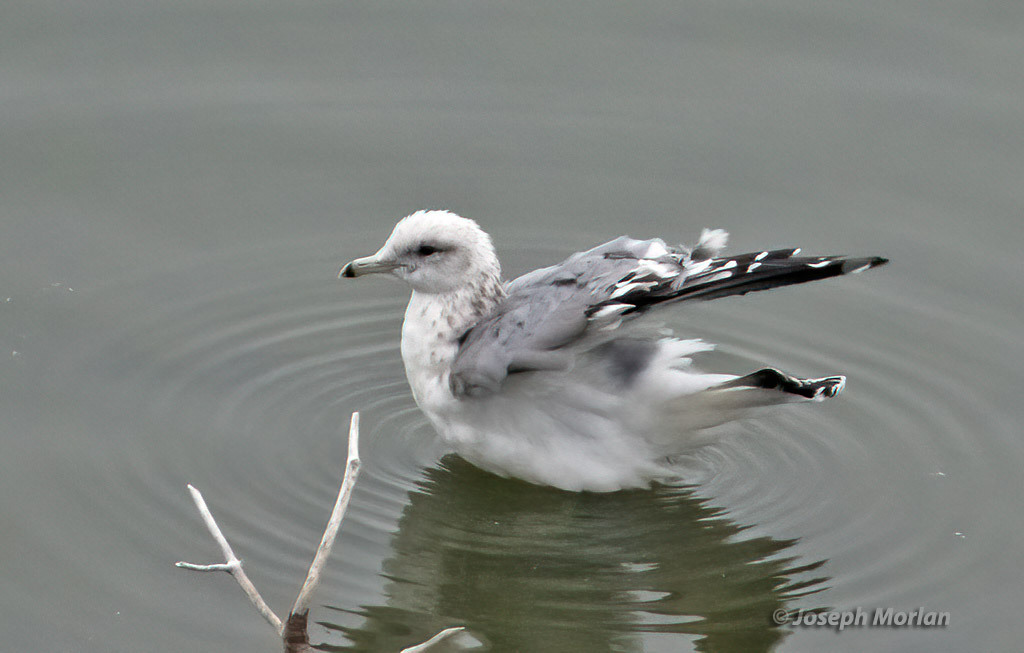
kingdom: Animalia
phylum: Chordata
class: Aves
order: Charadriiformes
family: Laridae
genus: Larus
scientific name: Larus californicus
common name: California gull
